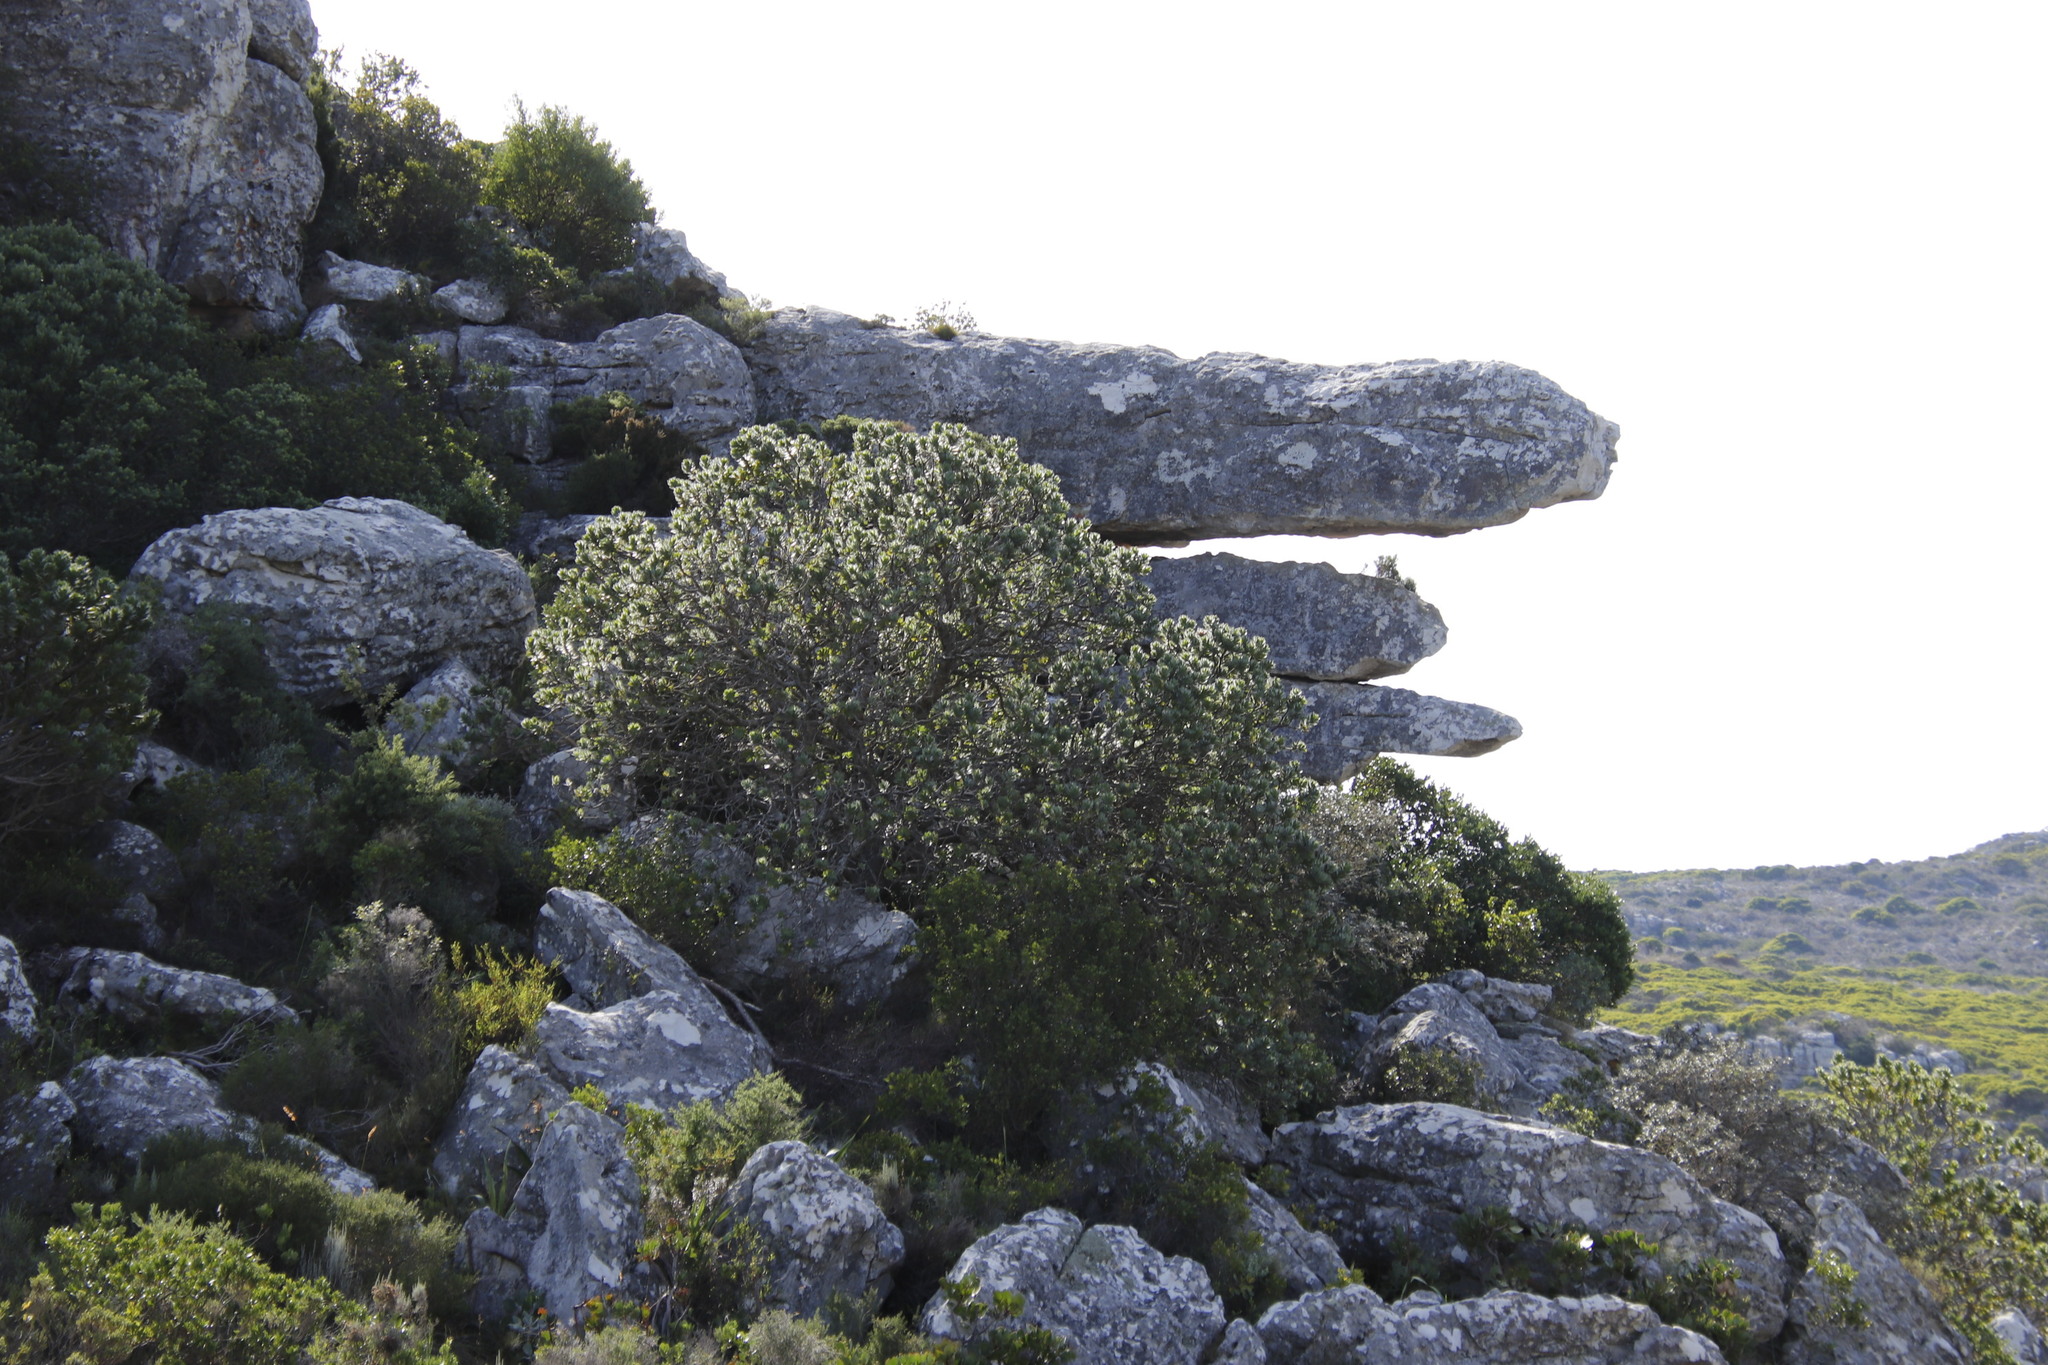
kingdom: Plantae
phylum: Tracheophyta
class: Magnoliopsida
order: Proteales
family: Proteaceae
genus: Leucospermum
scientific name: Leucospermum conocarpodendron
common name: Tree pincushion
